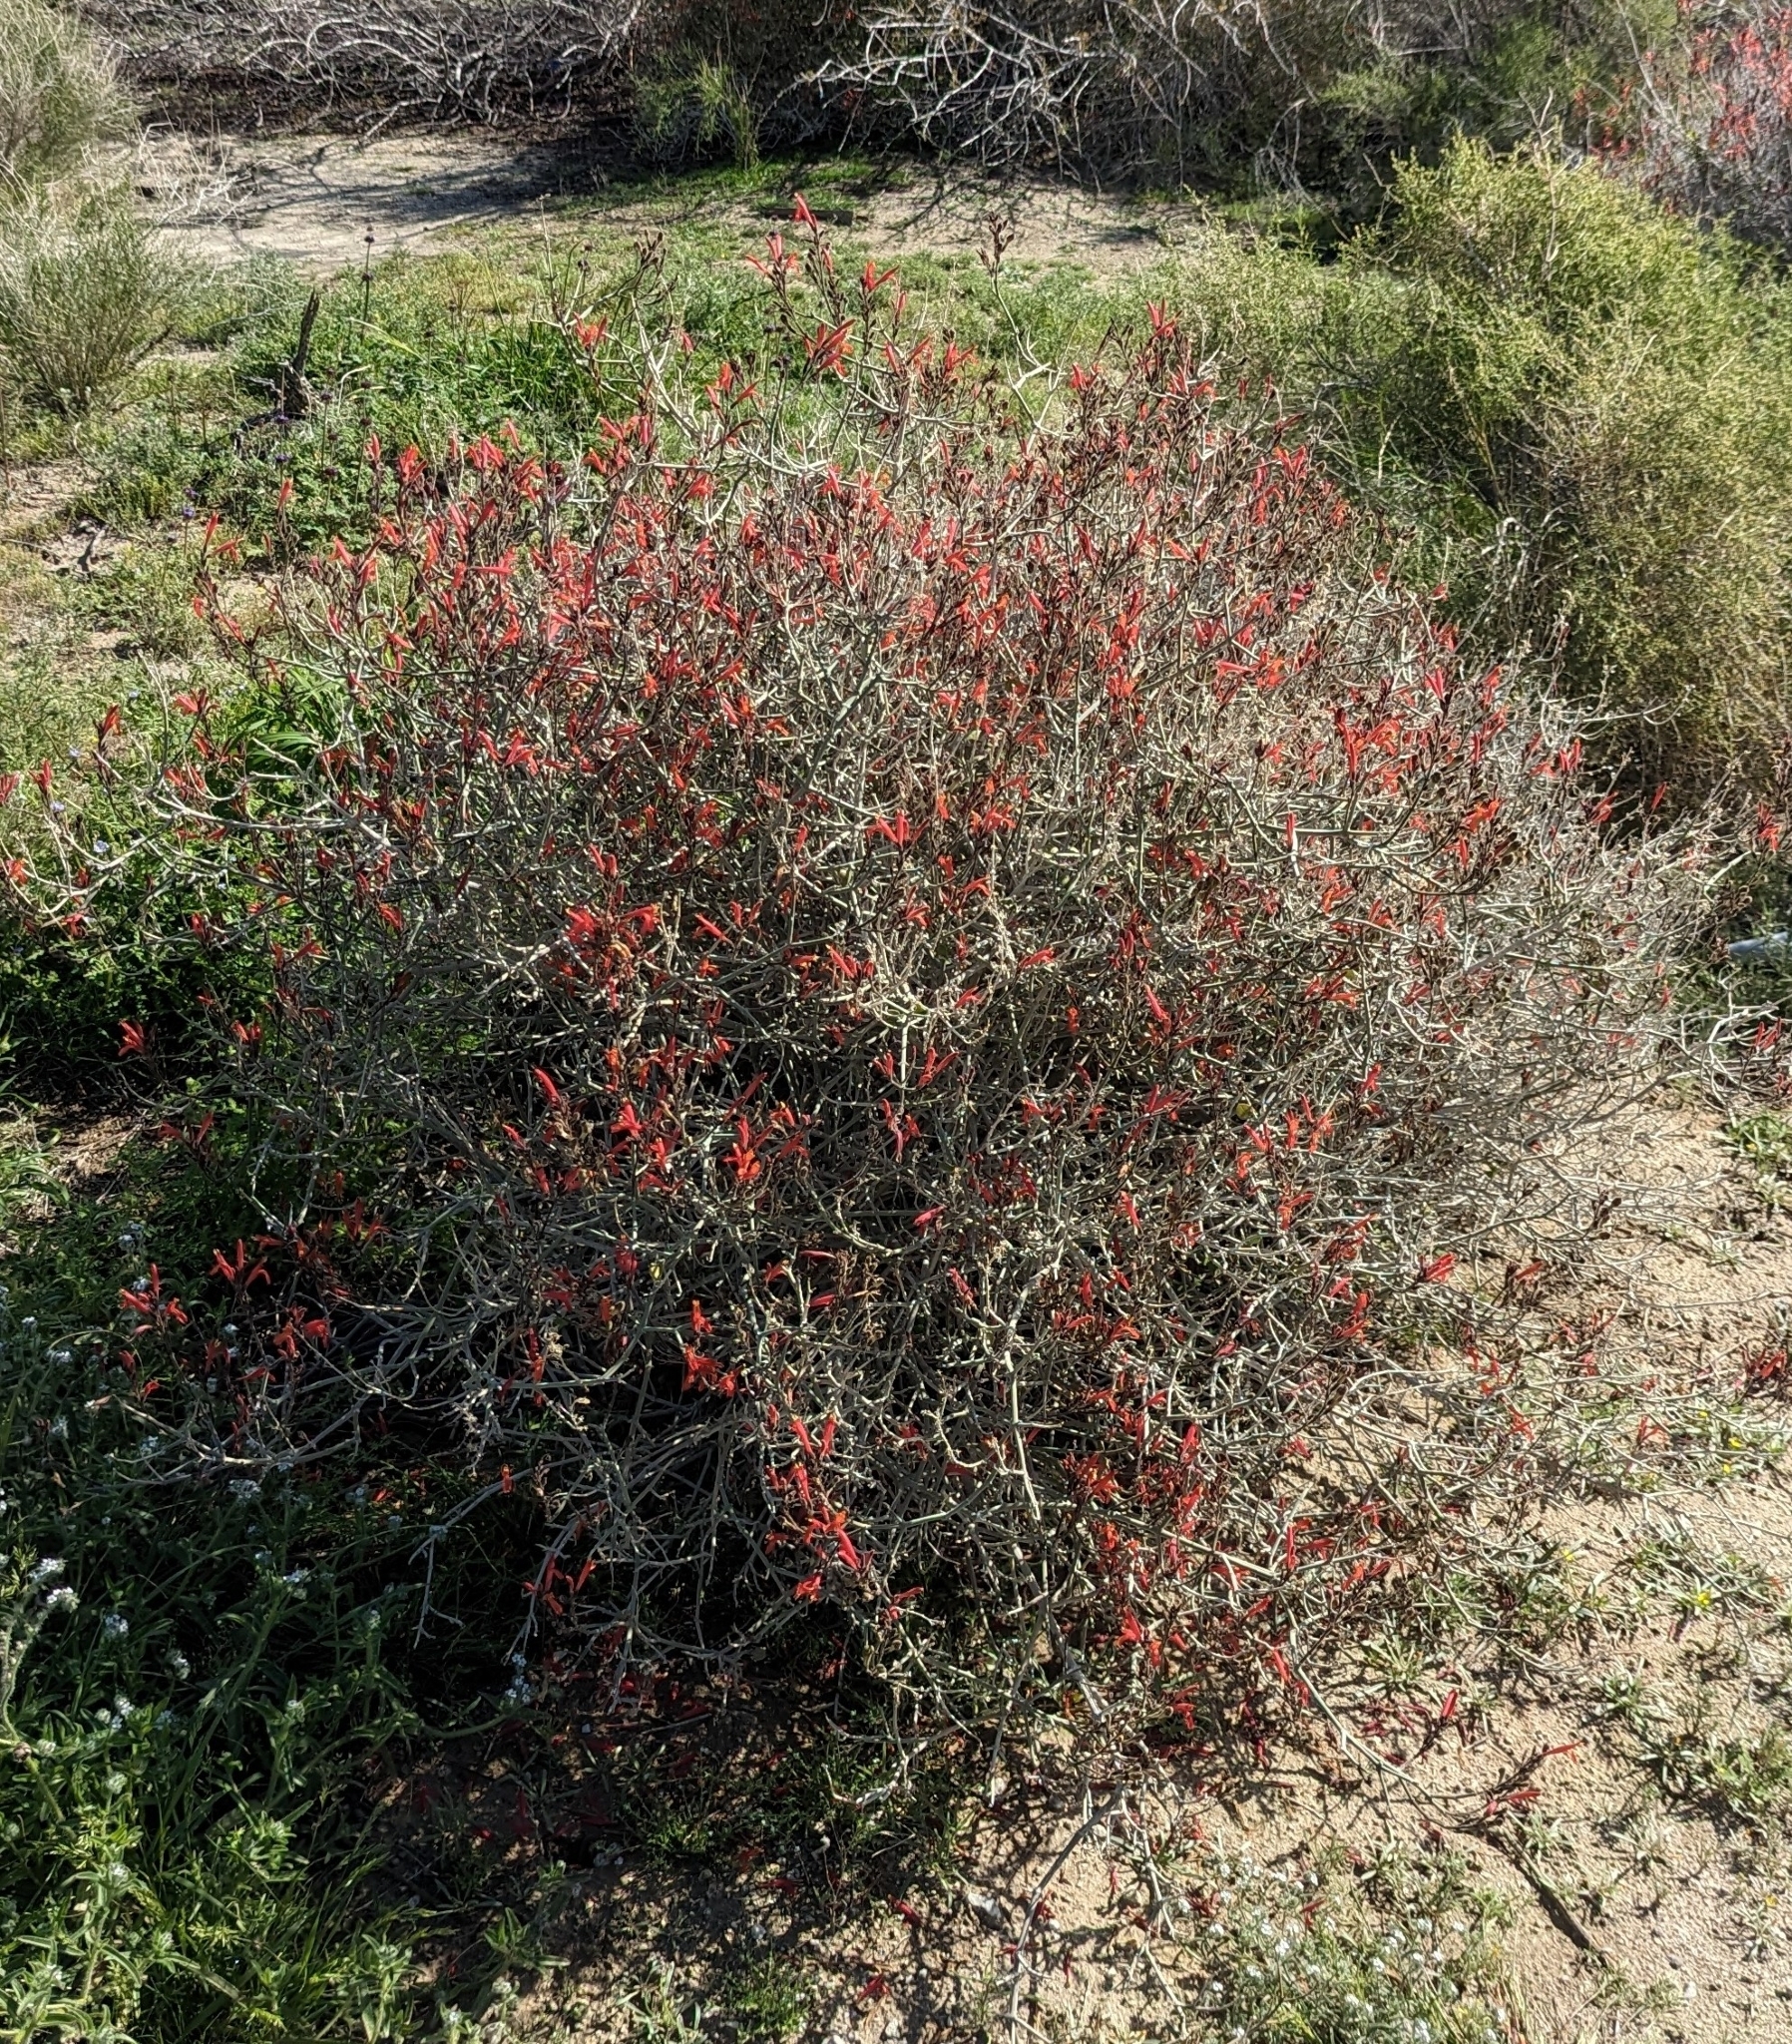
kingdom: Plantae
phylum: Tracheophyta
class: Magnoliopsida
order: Lamiales
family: Acanthaceae
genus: Justicia
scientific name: Justicia californica
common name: Chuparosa-honeysuckle
